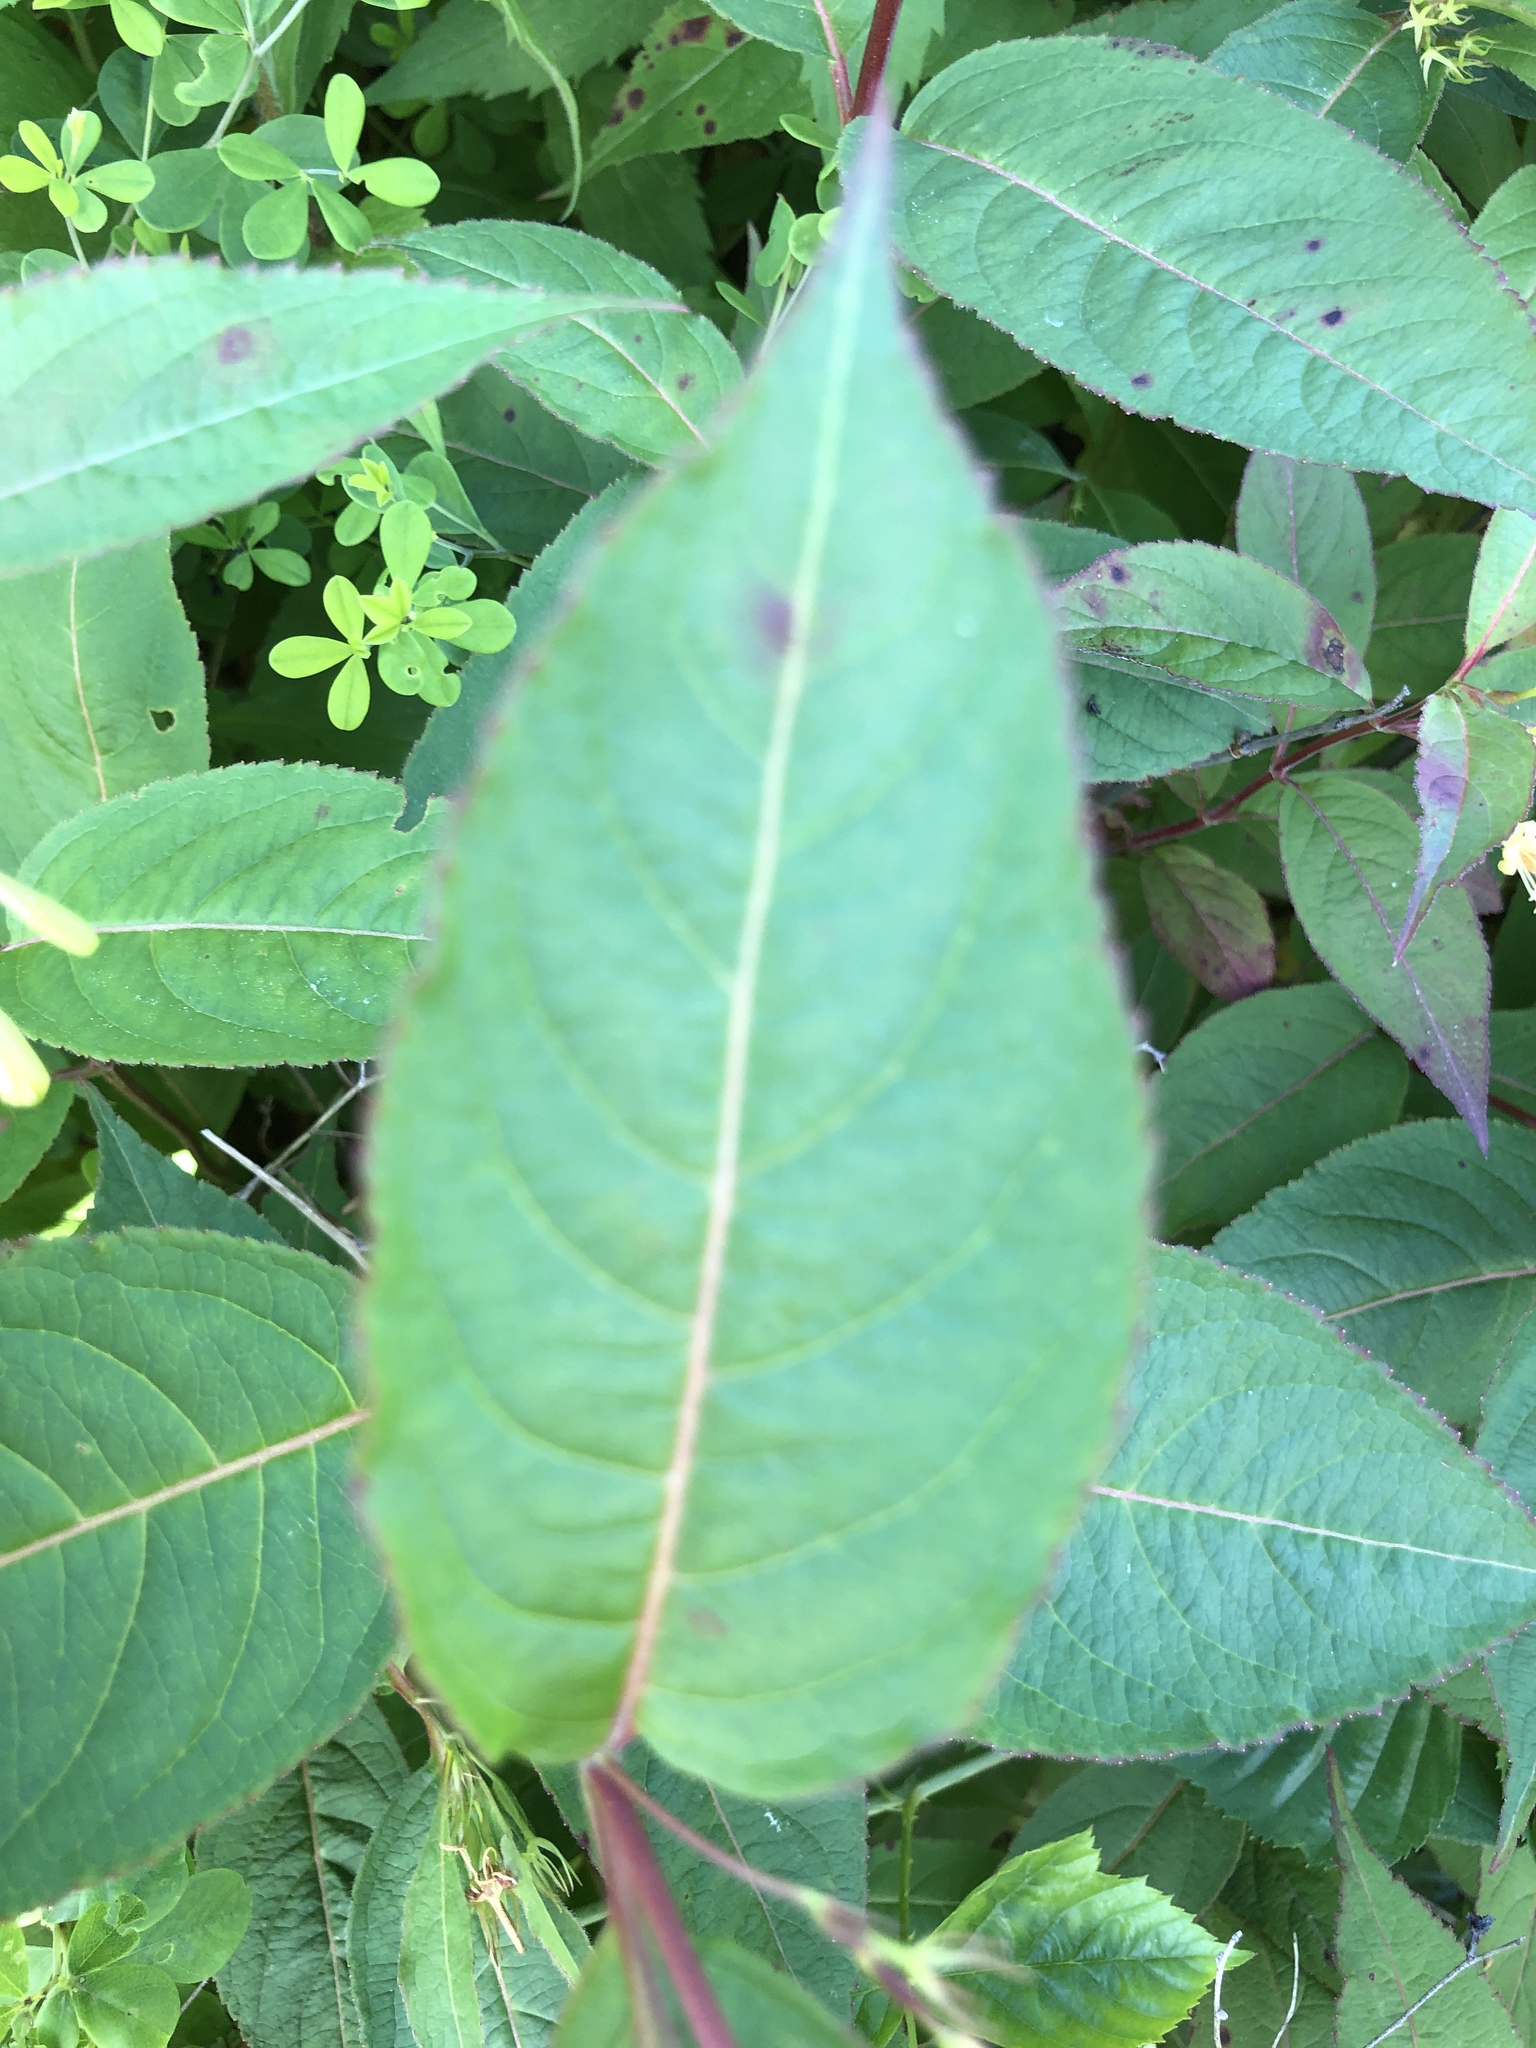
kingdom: Plantae
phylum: Tracheophyta
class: Magnoliopsida
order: Dipsacales
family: Caprifoliaceae
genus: Diervilla
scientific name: Diervilla lonicera
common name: Bush-honeysuckle
